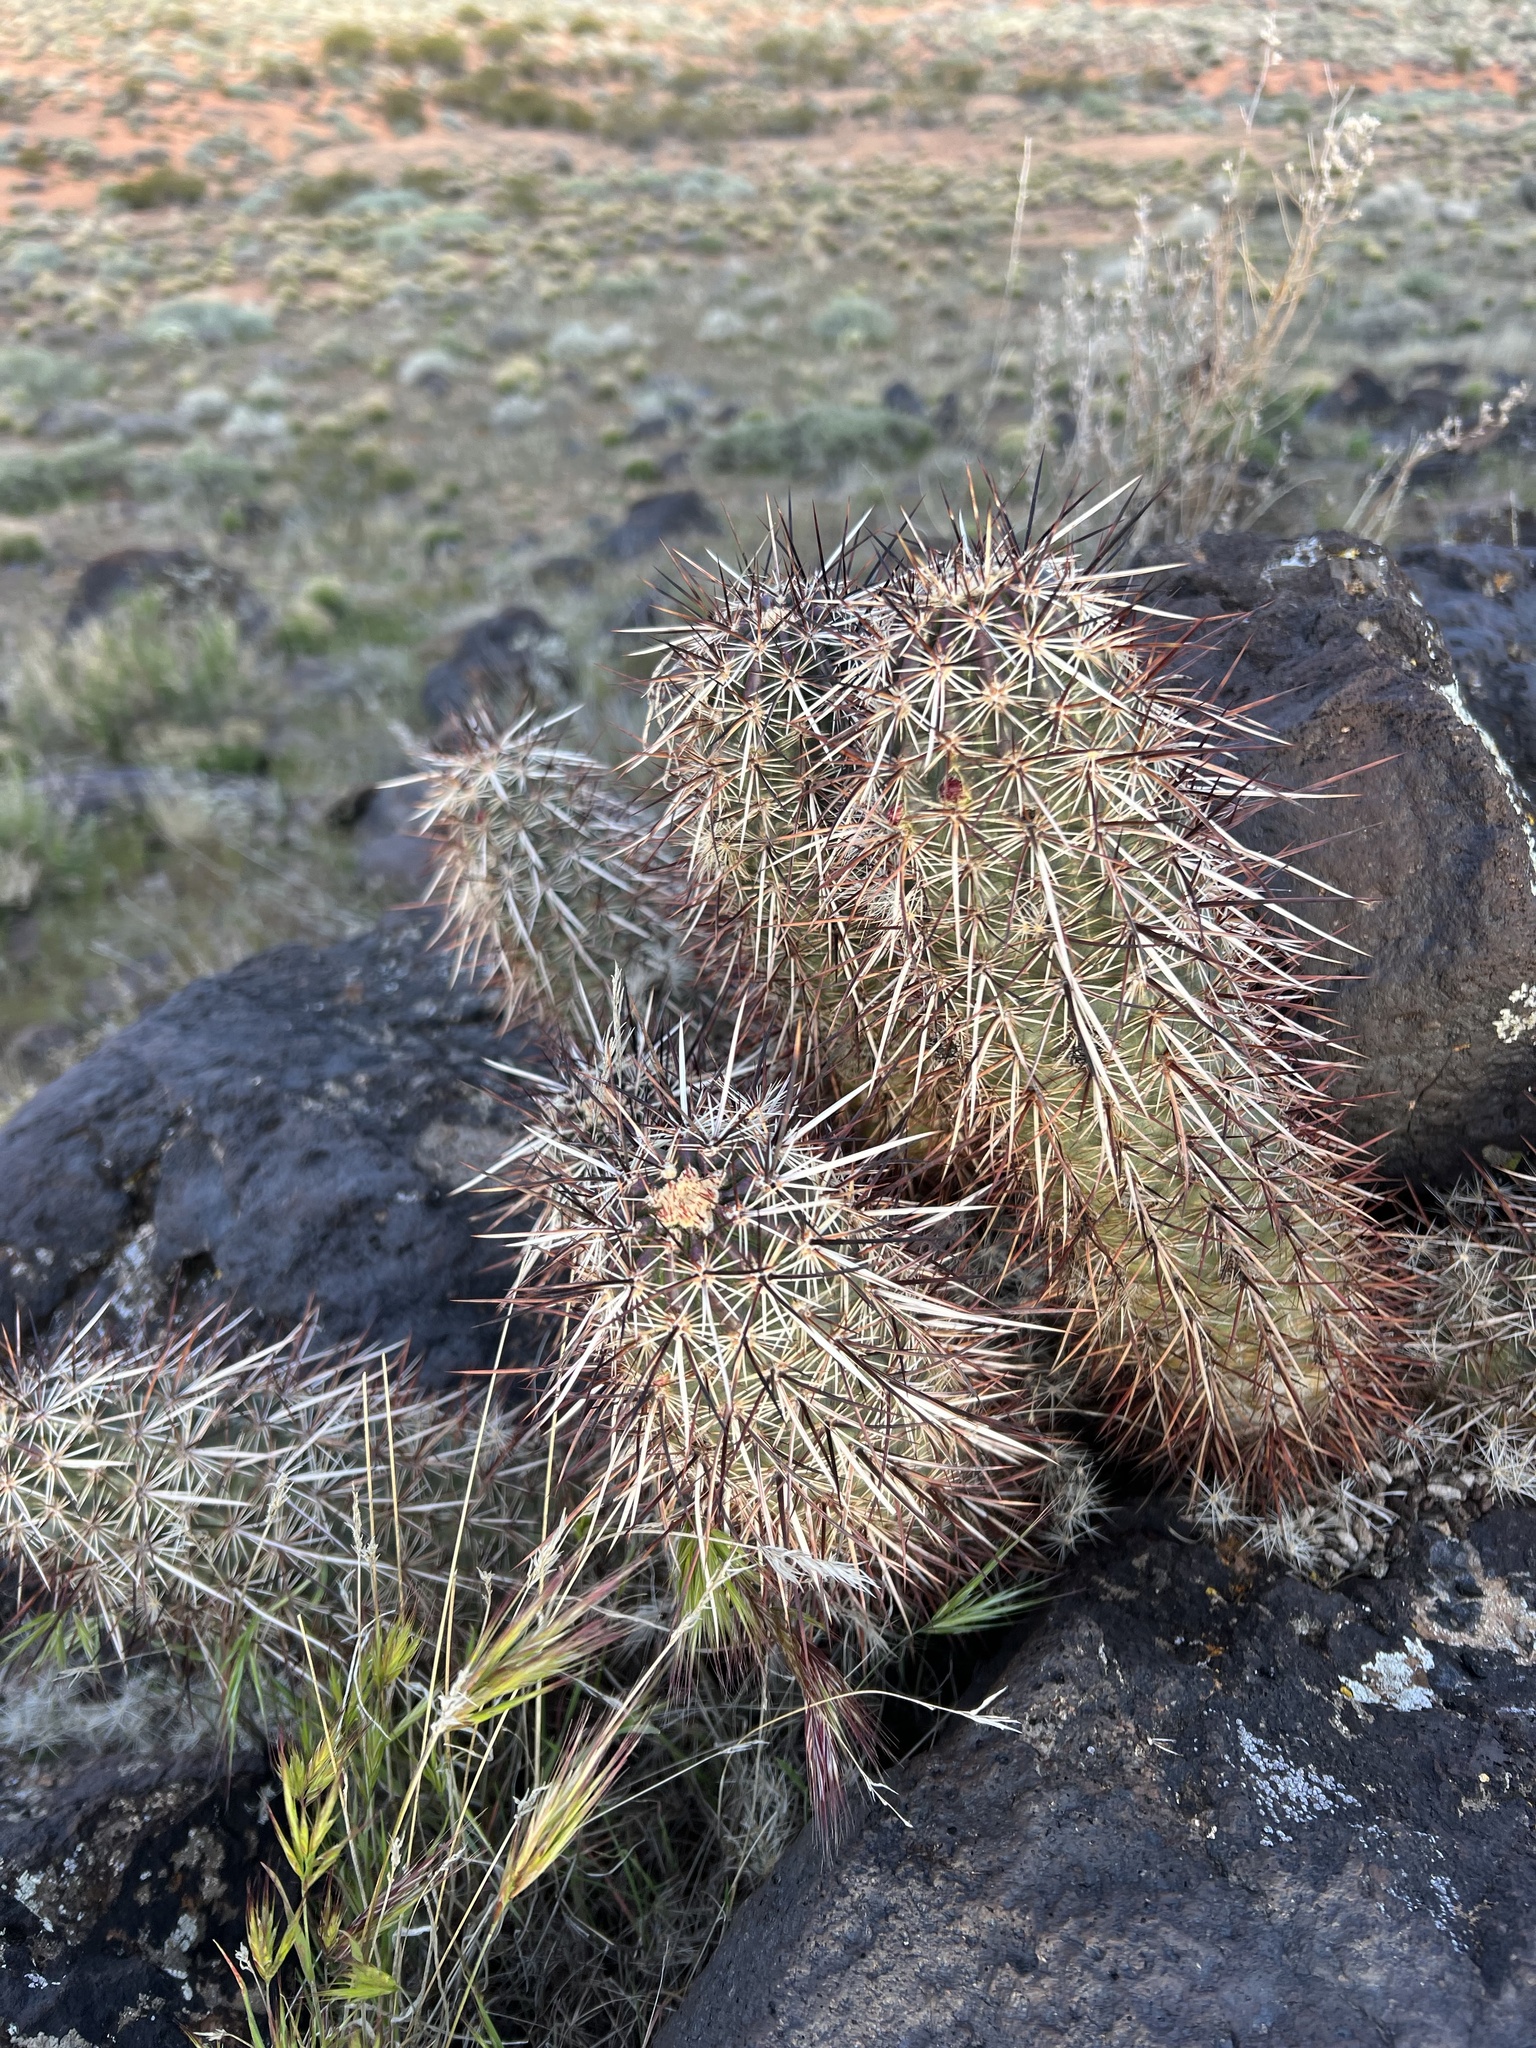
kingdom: Plantae
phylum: Tracheophyta
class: Magnoliopsida
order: Caryophyllales
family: Cactaceae
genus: Echinocereus
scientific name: Echinocereus relictus
